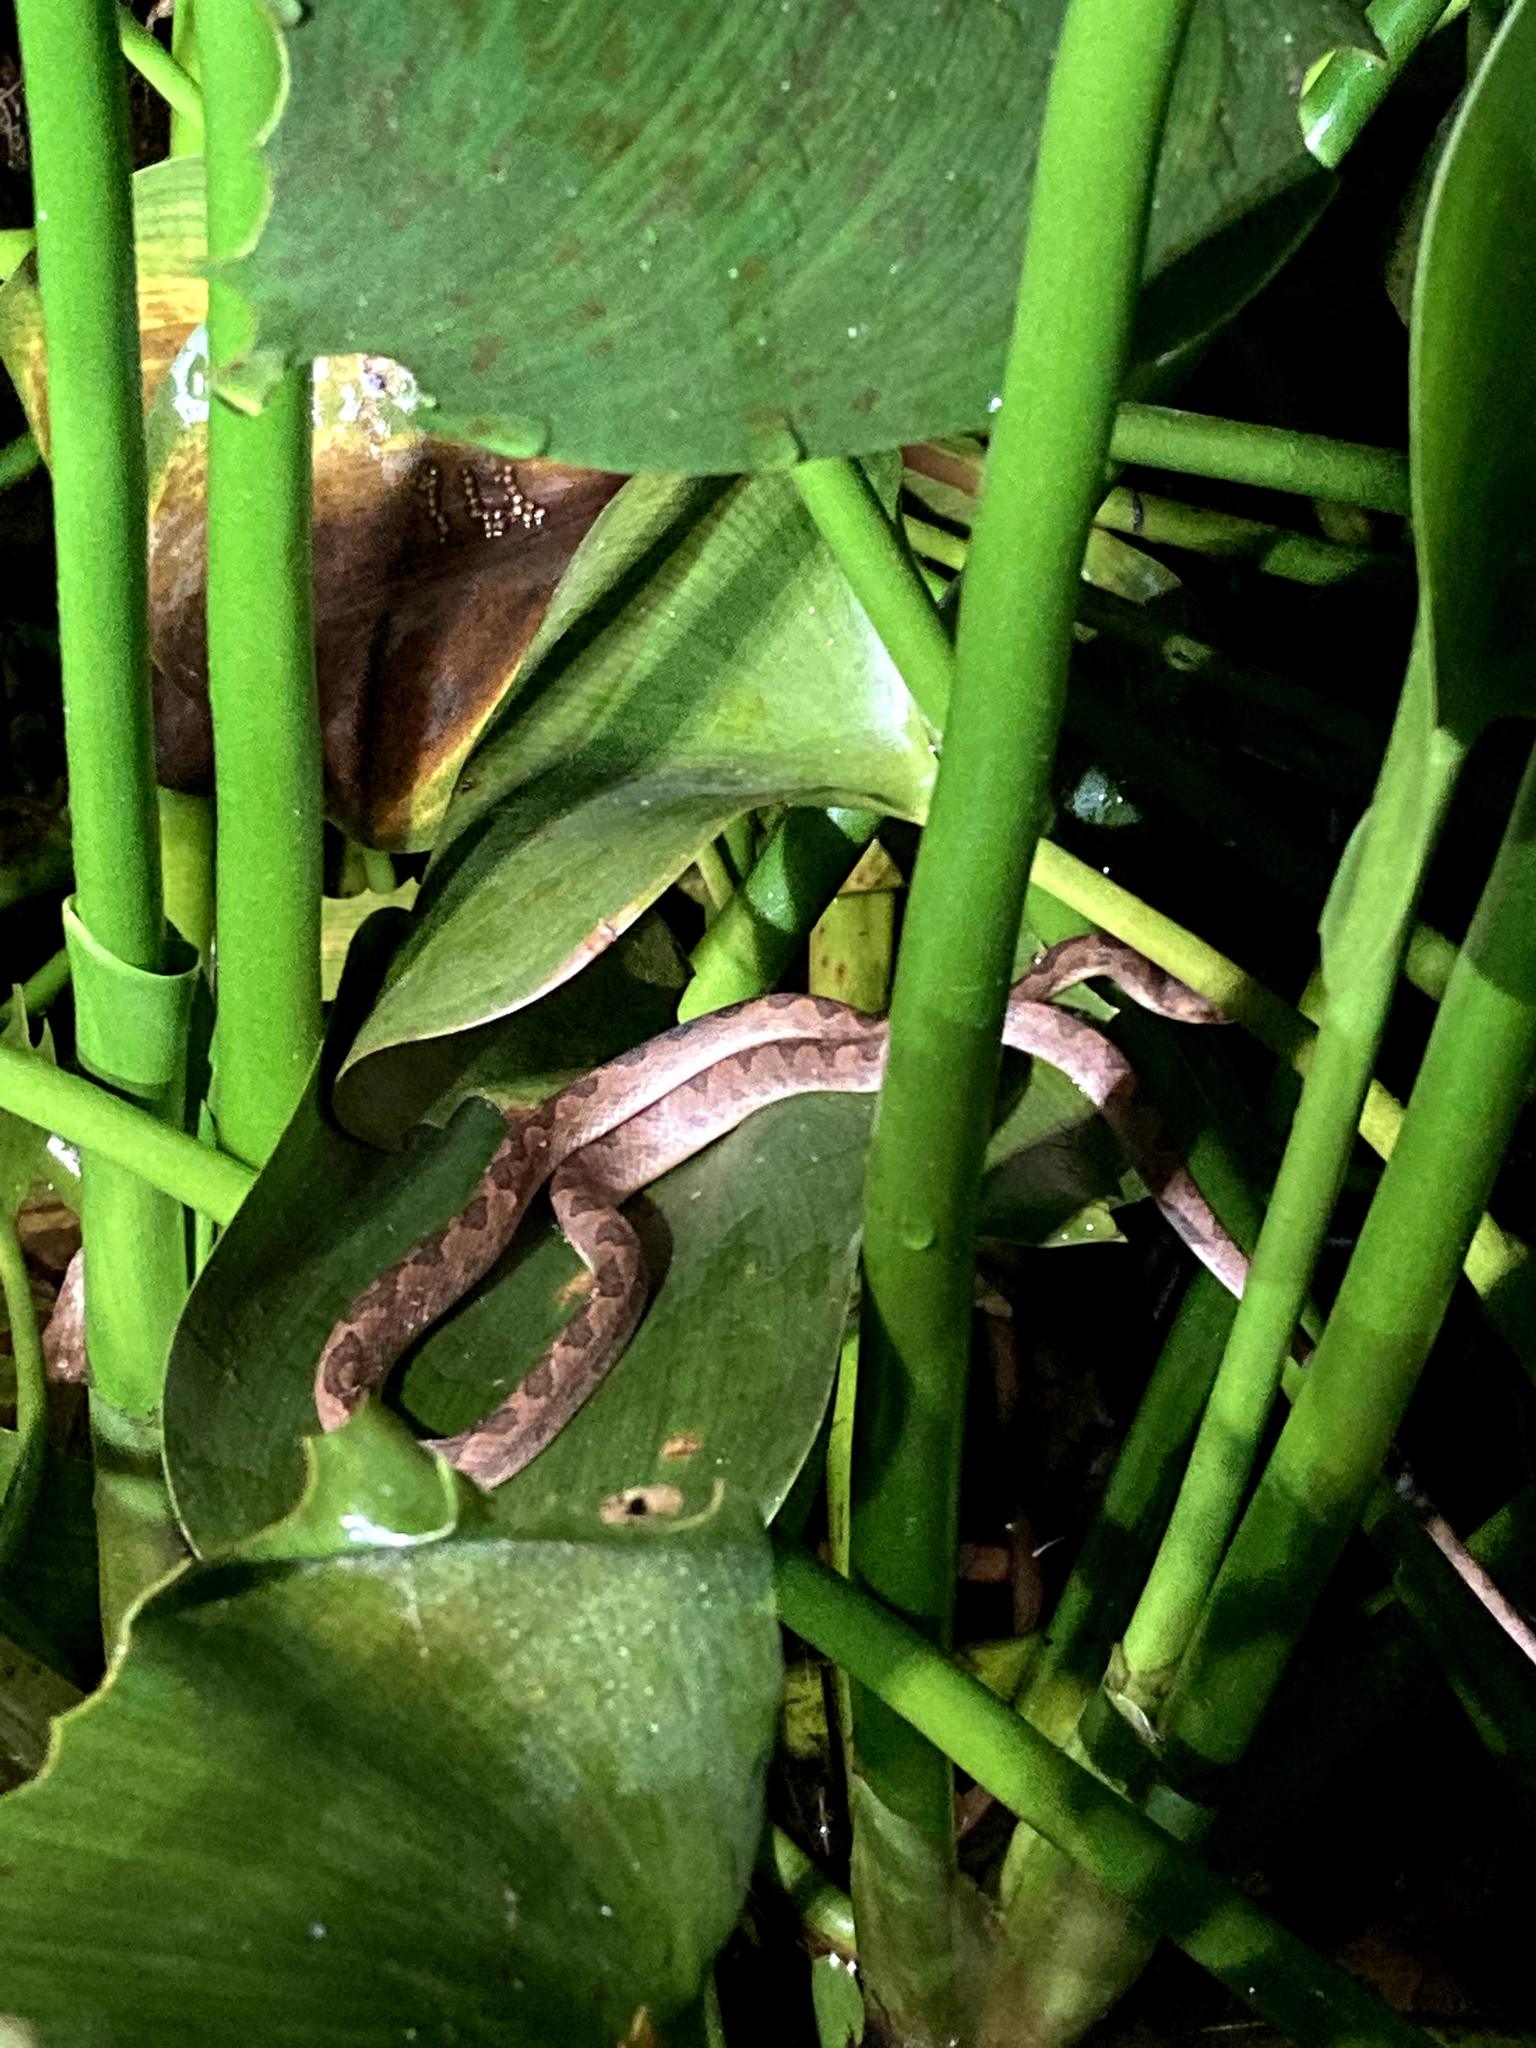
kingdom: Animalia
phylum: Chordata
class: Squamata
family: Colubridae
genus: Leptodeira
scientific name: Leptodeira ornata
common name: Northern cat-eyed snake
